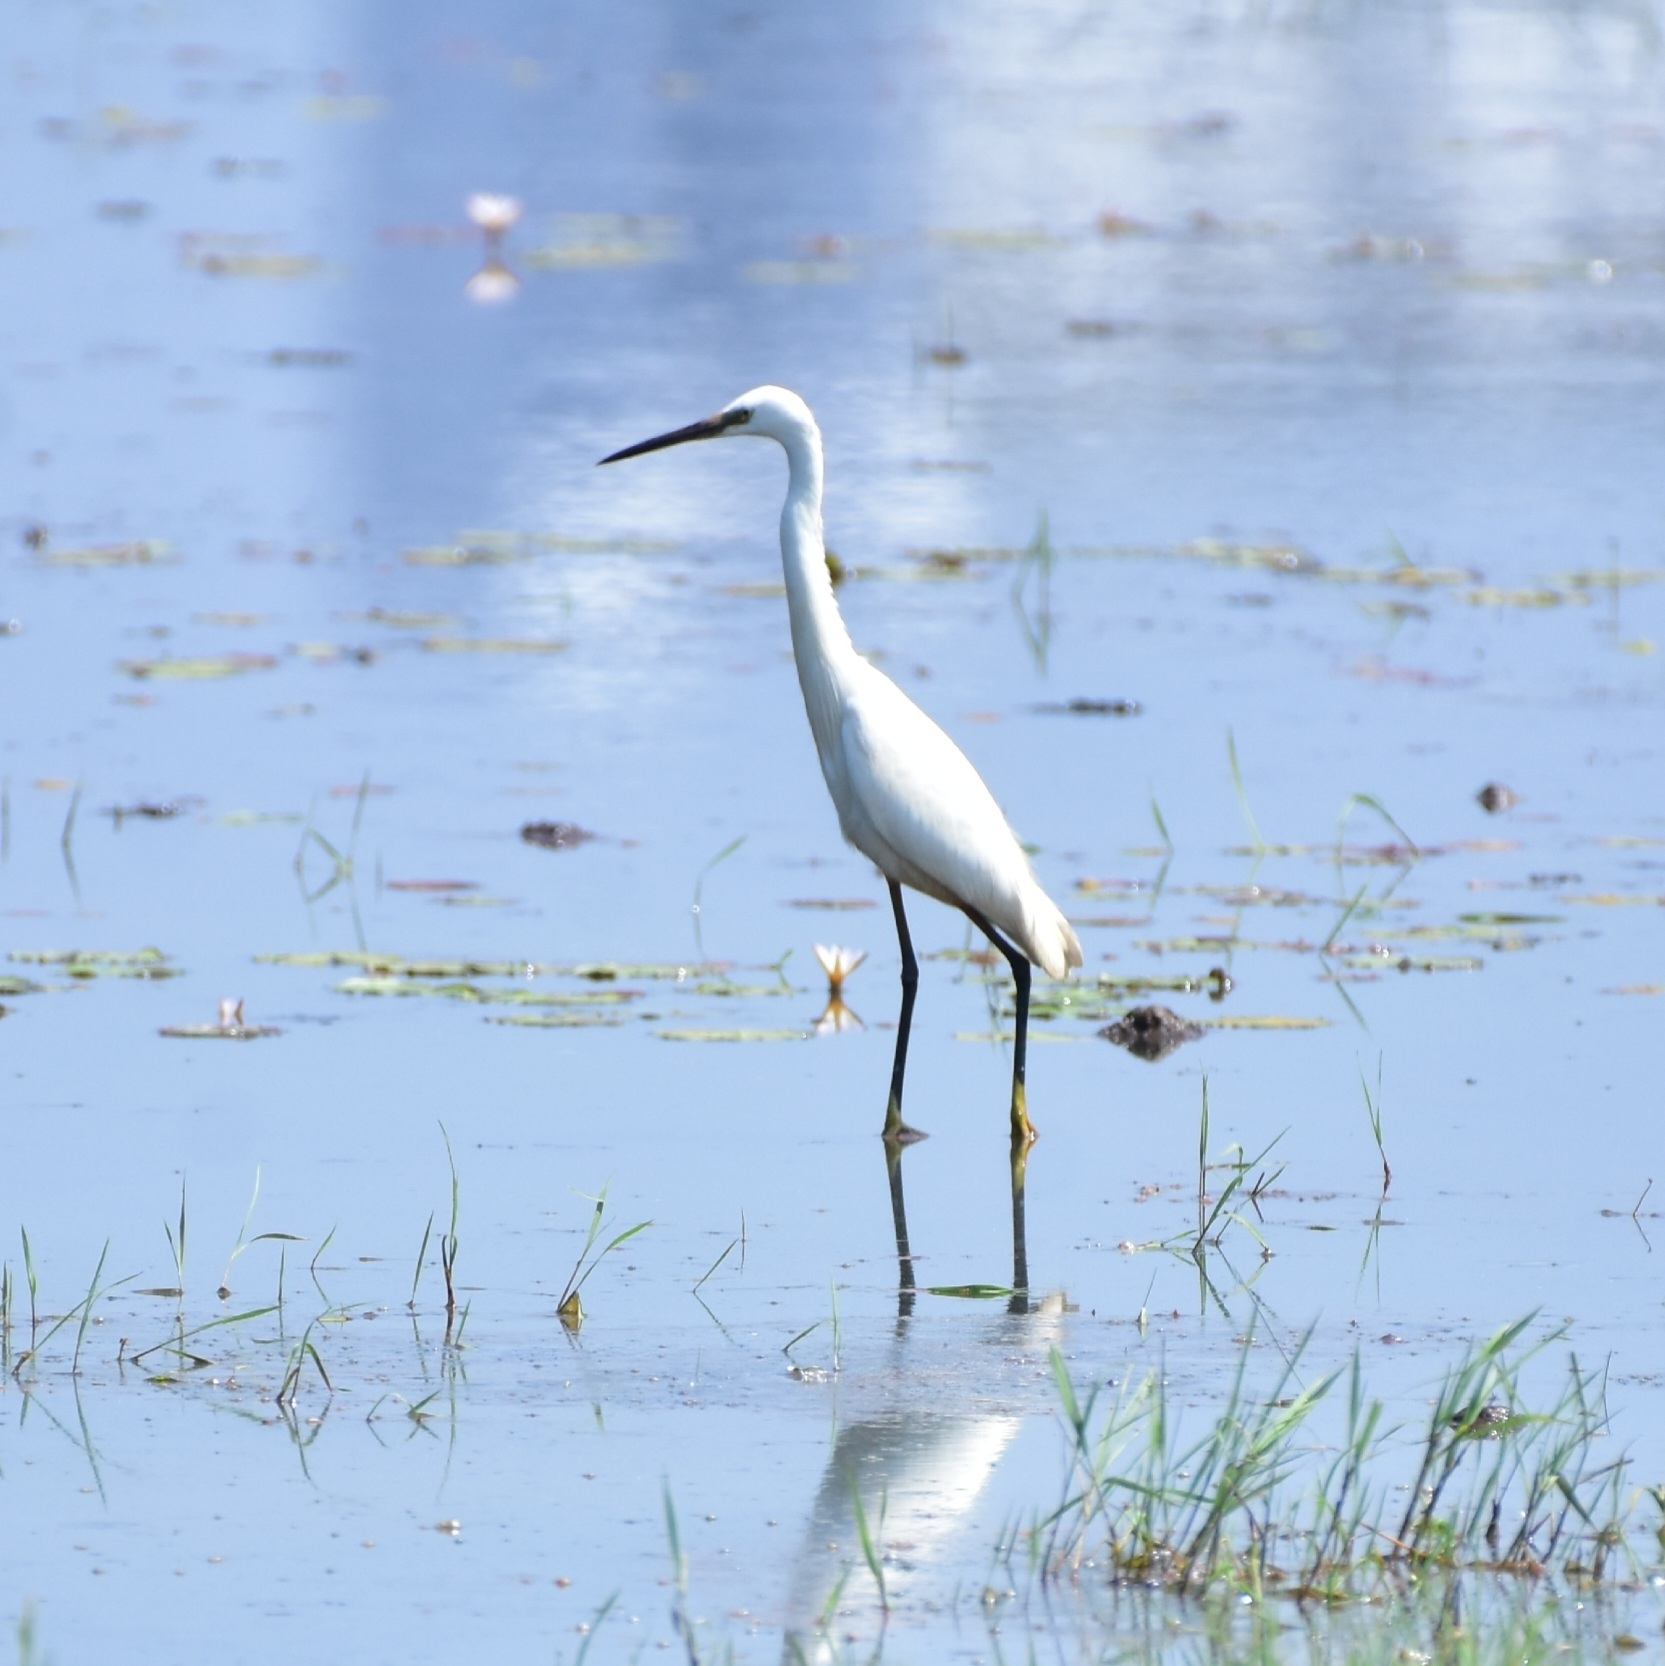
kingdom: Animalia
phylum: Chordata
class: Aves
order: Pelecaniformes
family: Ardeidae
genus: Egretta
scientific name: Egretta garzetta
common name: Little egret
